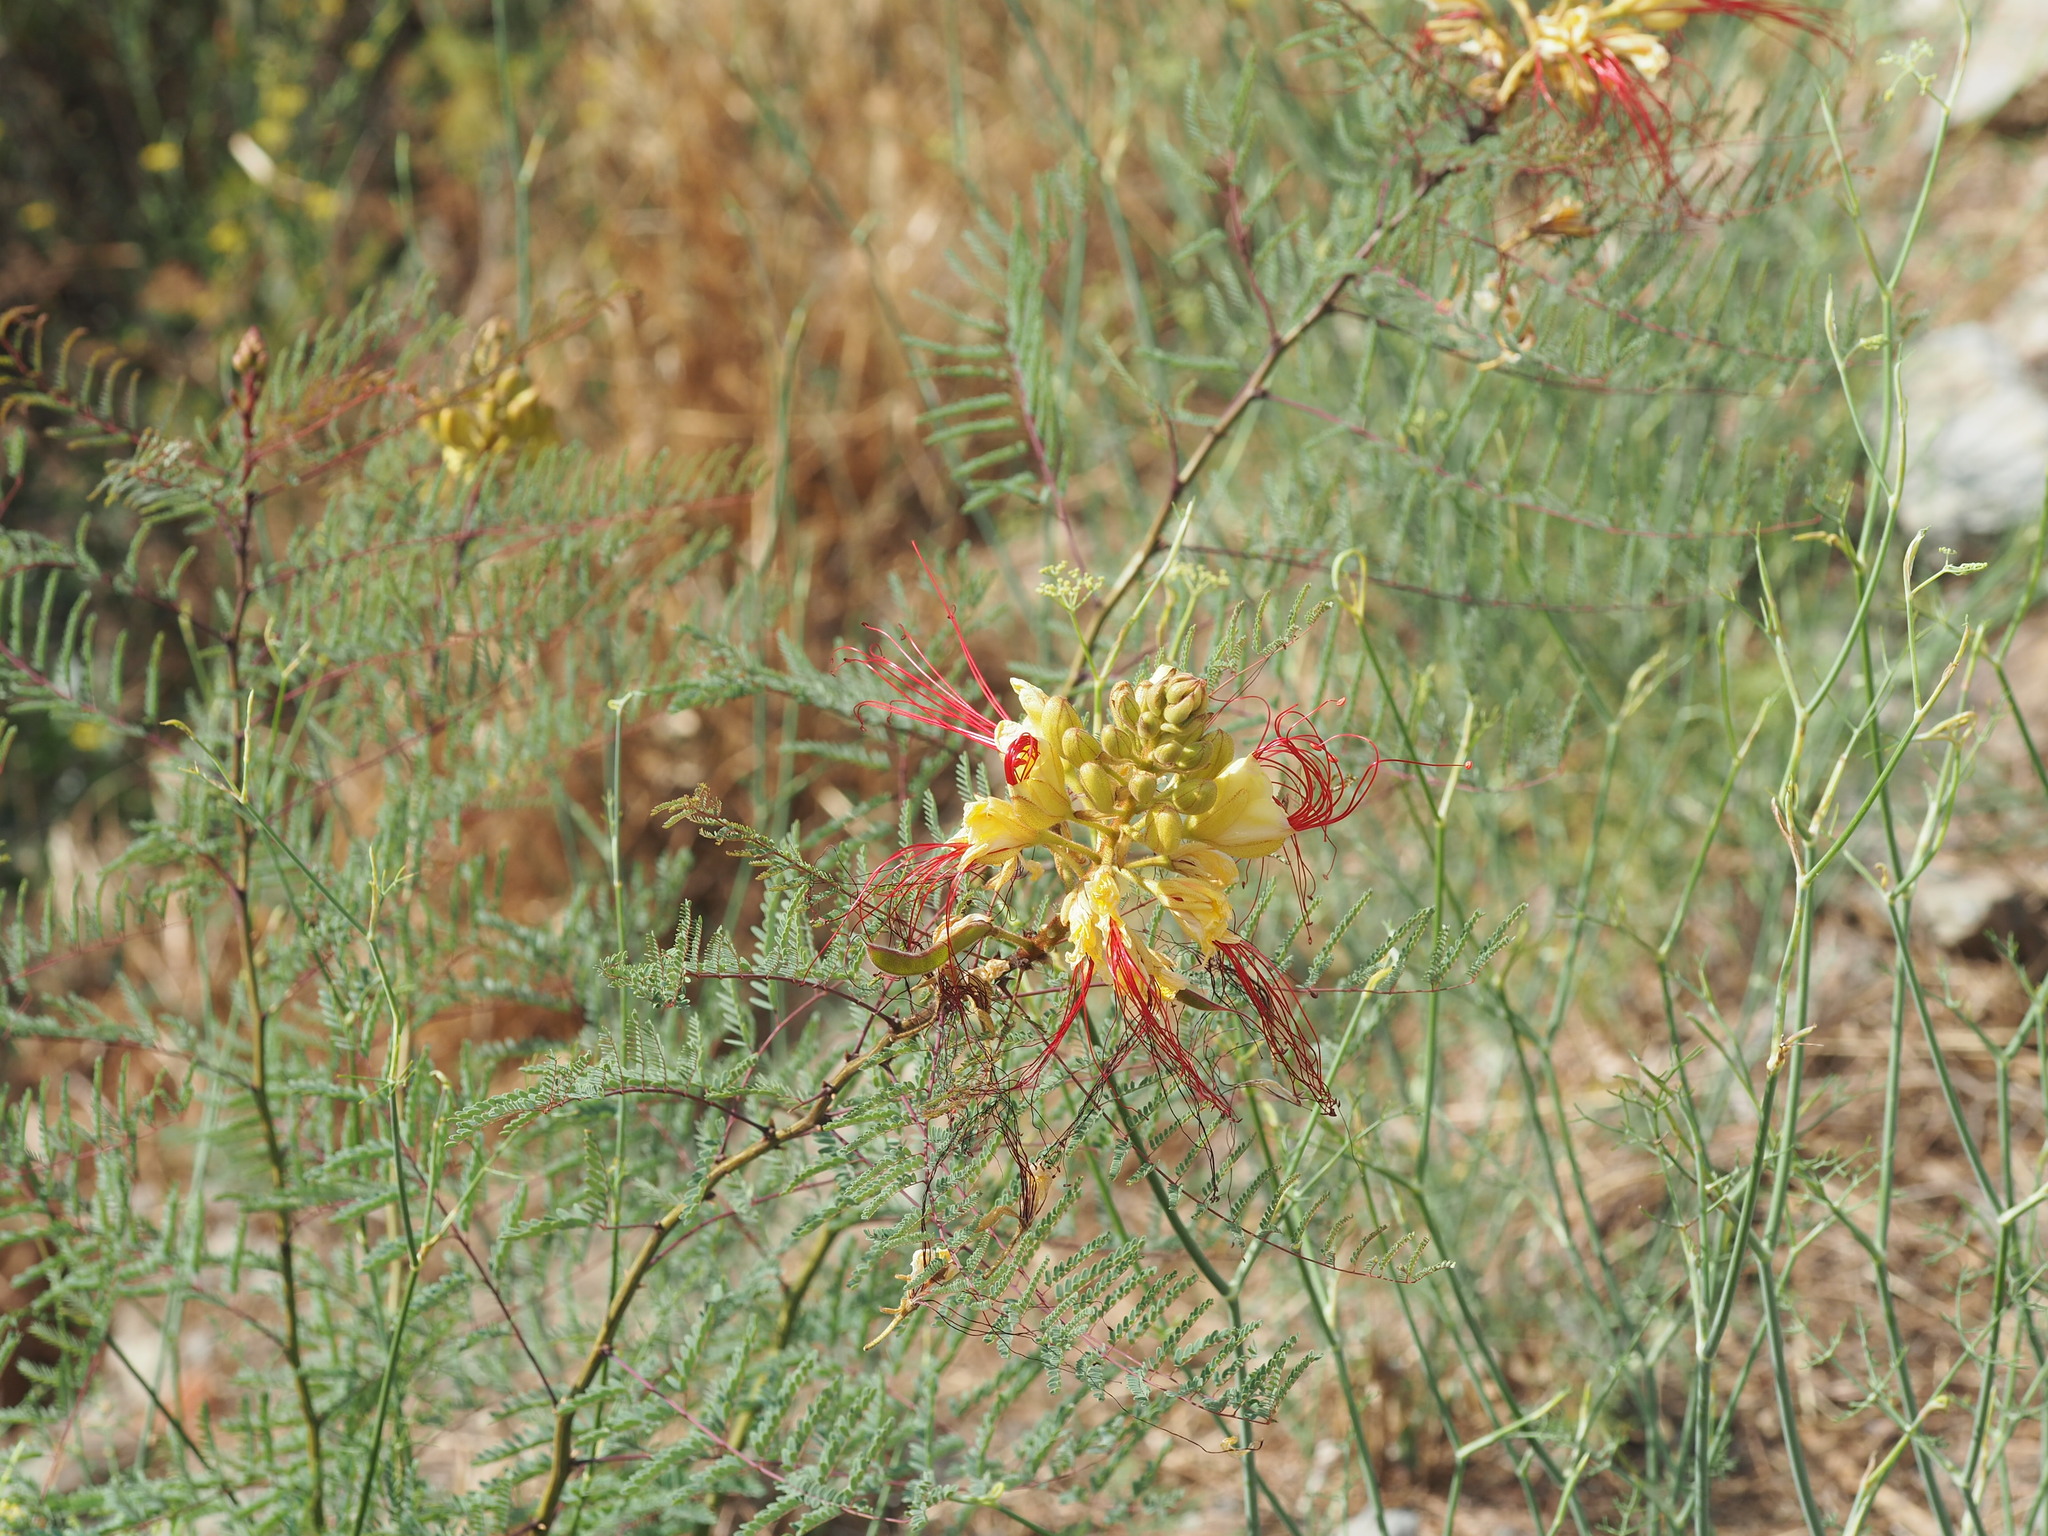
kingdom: Plantae
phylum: Tracheophyta
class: Magnoliopsida
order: Fabales
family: Fabaceae
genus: Erythrostemon
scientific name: Erythrostemon gilliesii
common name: Bird-of-paradise shrub
